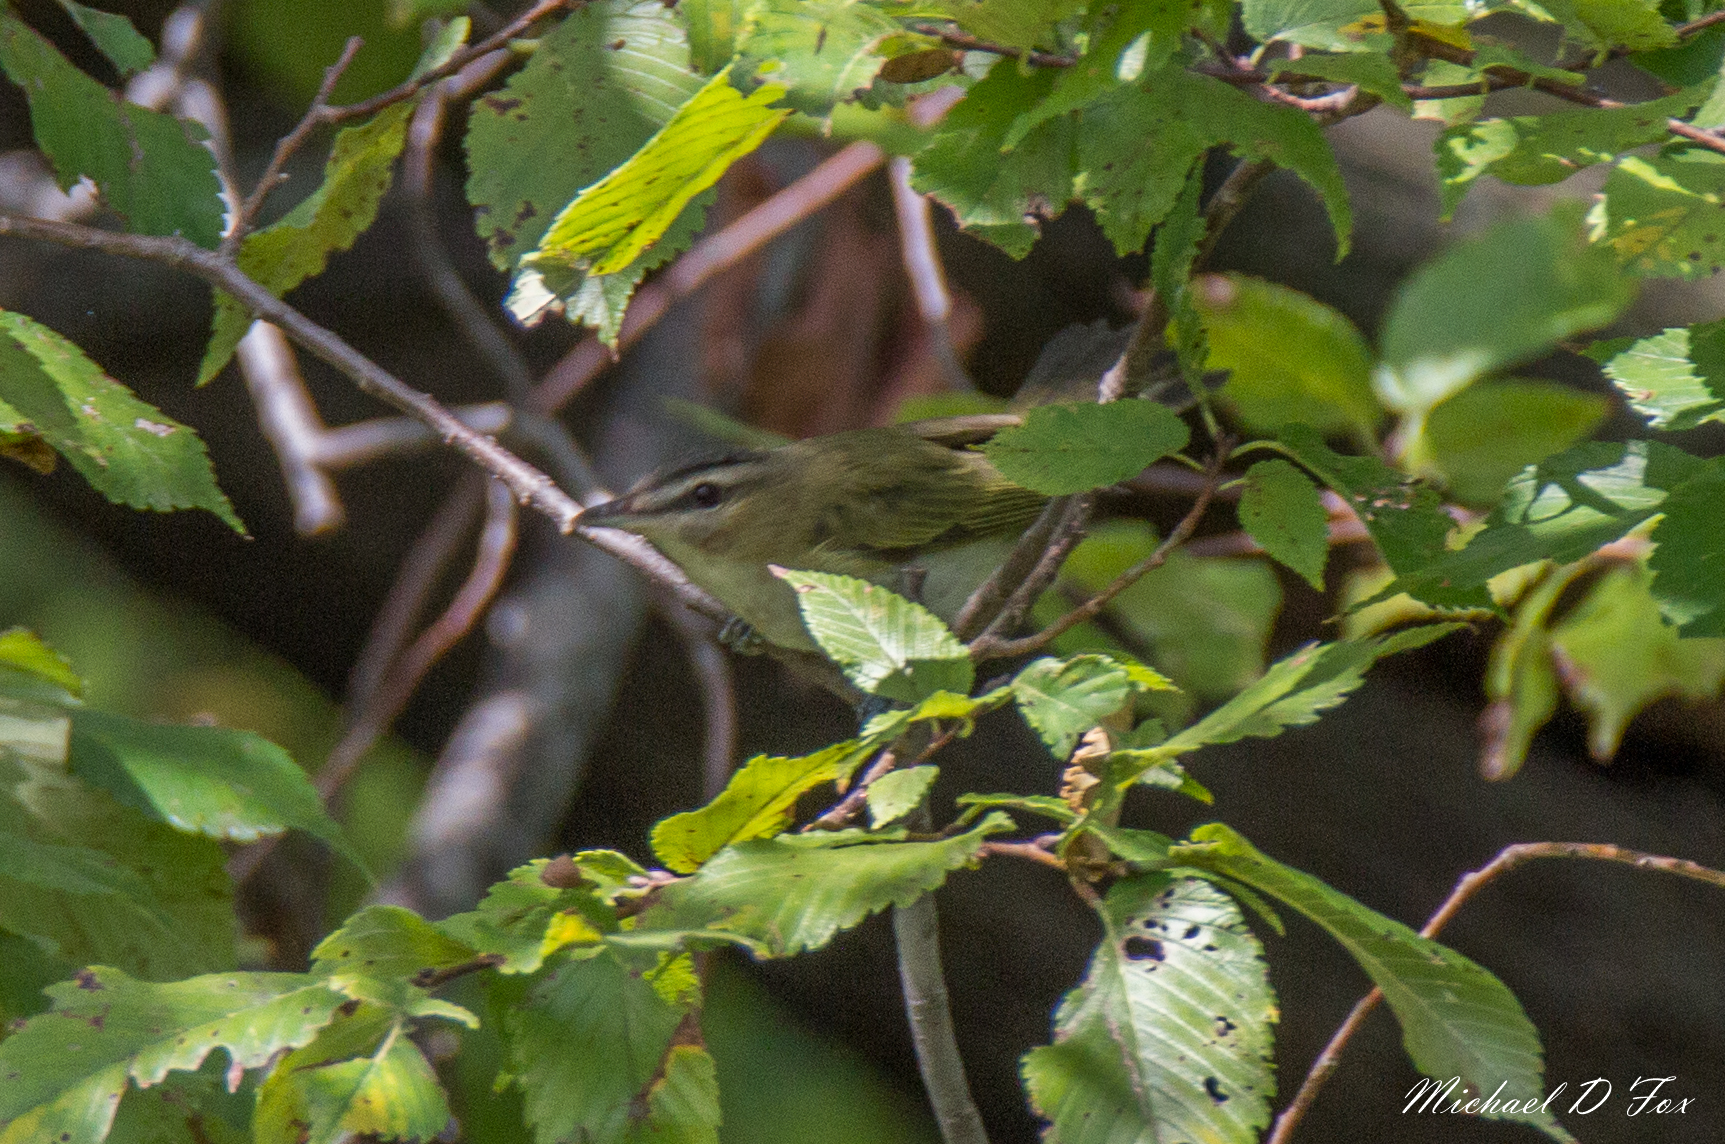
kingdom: Animalia
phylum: Chordata
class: Aves
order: Passeriformes
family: Vireonidae
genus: Vireo
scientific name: Vireo olivaceus
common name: Red-eyed vireo
